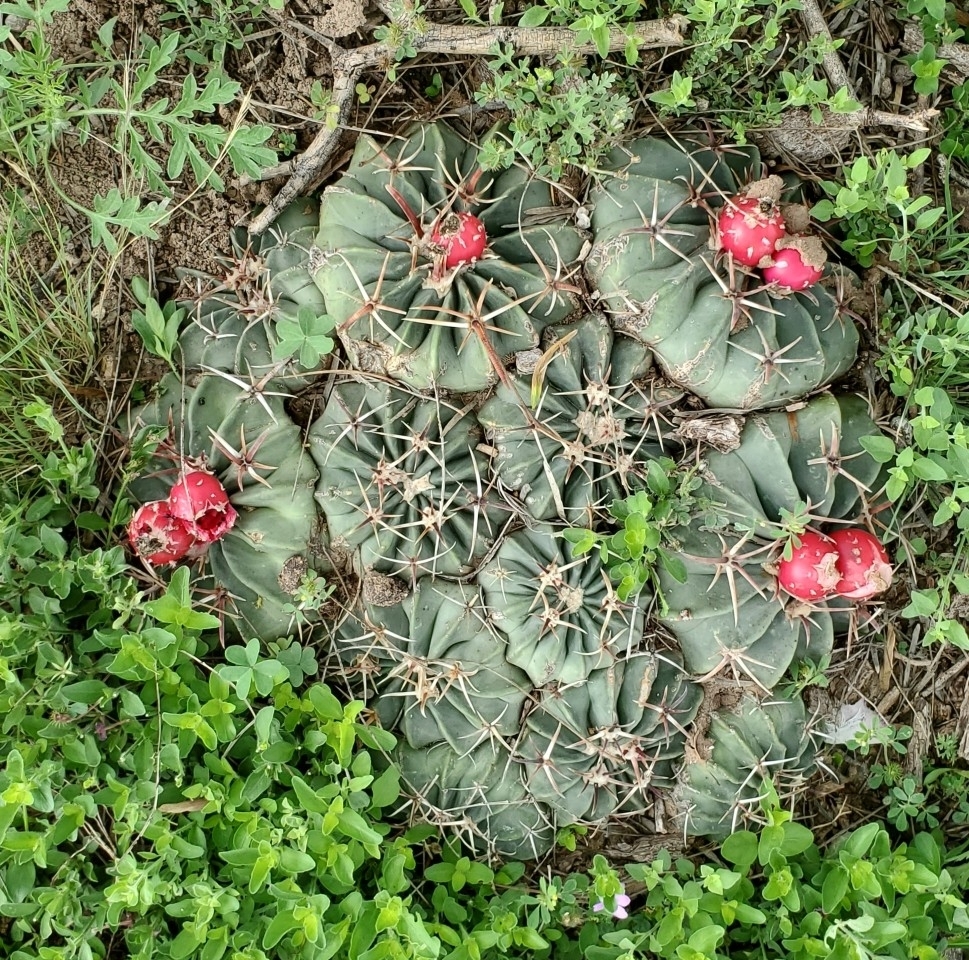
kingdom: Plantae
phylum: Tracheophyta
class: Magnoliopsida
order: Caryophyllales
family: Cactaceae
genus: Echinocactus
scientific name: Echinocactus texensis
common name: Devil's pincushion
